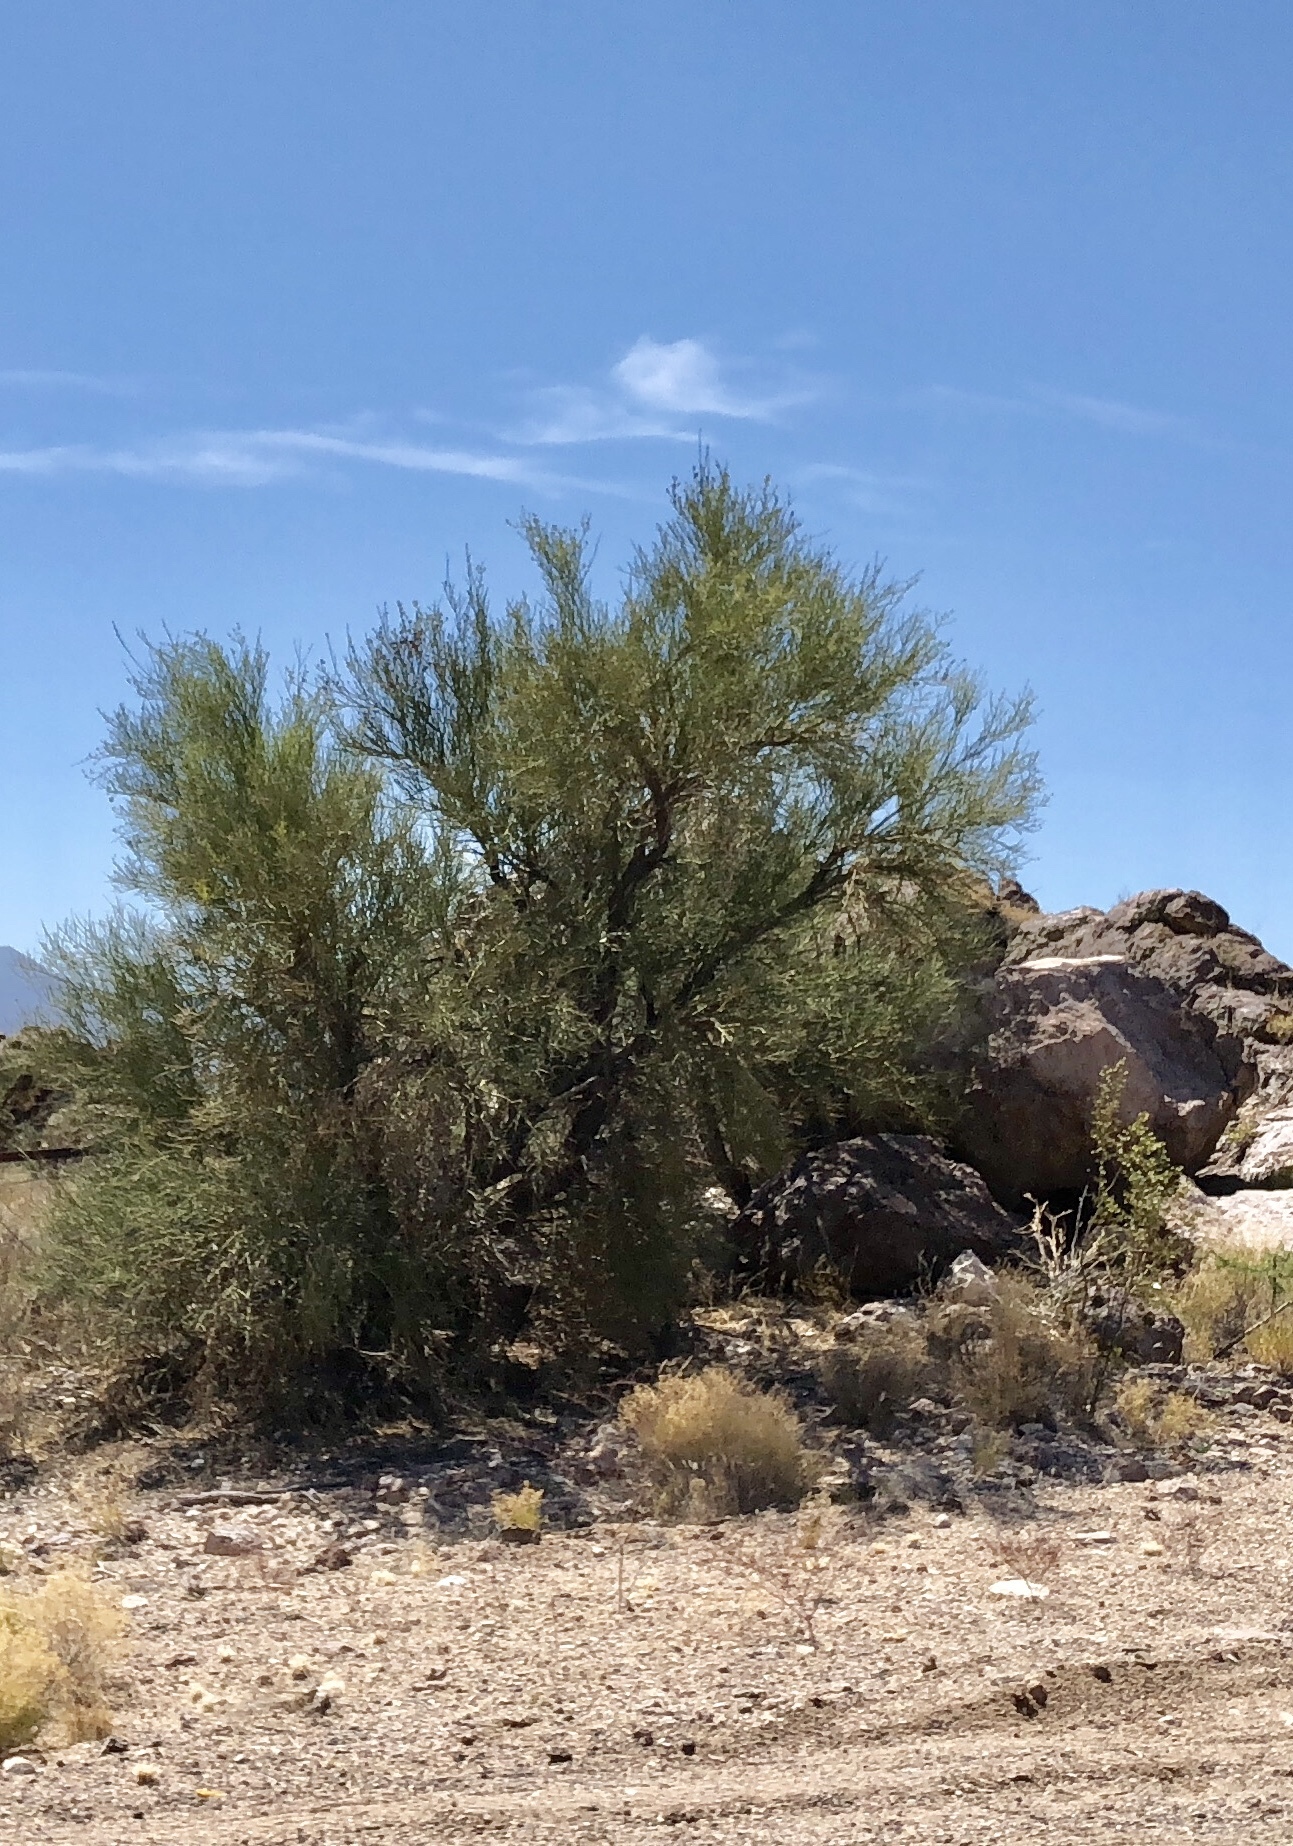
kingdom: Plantae
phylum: Tracheophyta
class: Magnoliopsida
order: Celastrales
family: Celastraceae
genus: Canotia
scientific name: Canotia holacantha
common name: Crucifixion thorns
